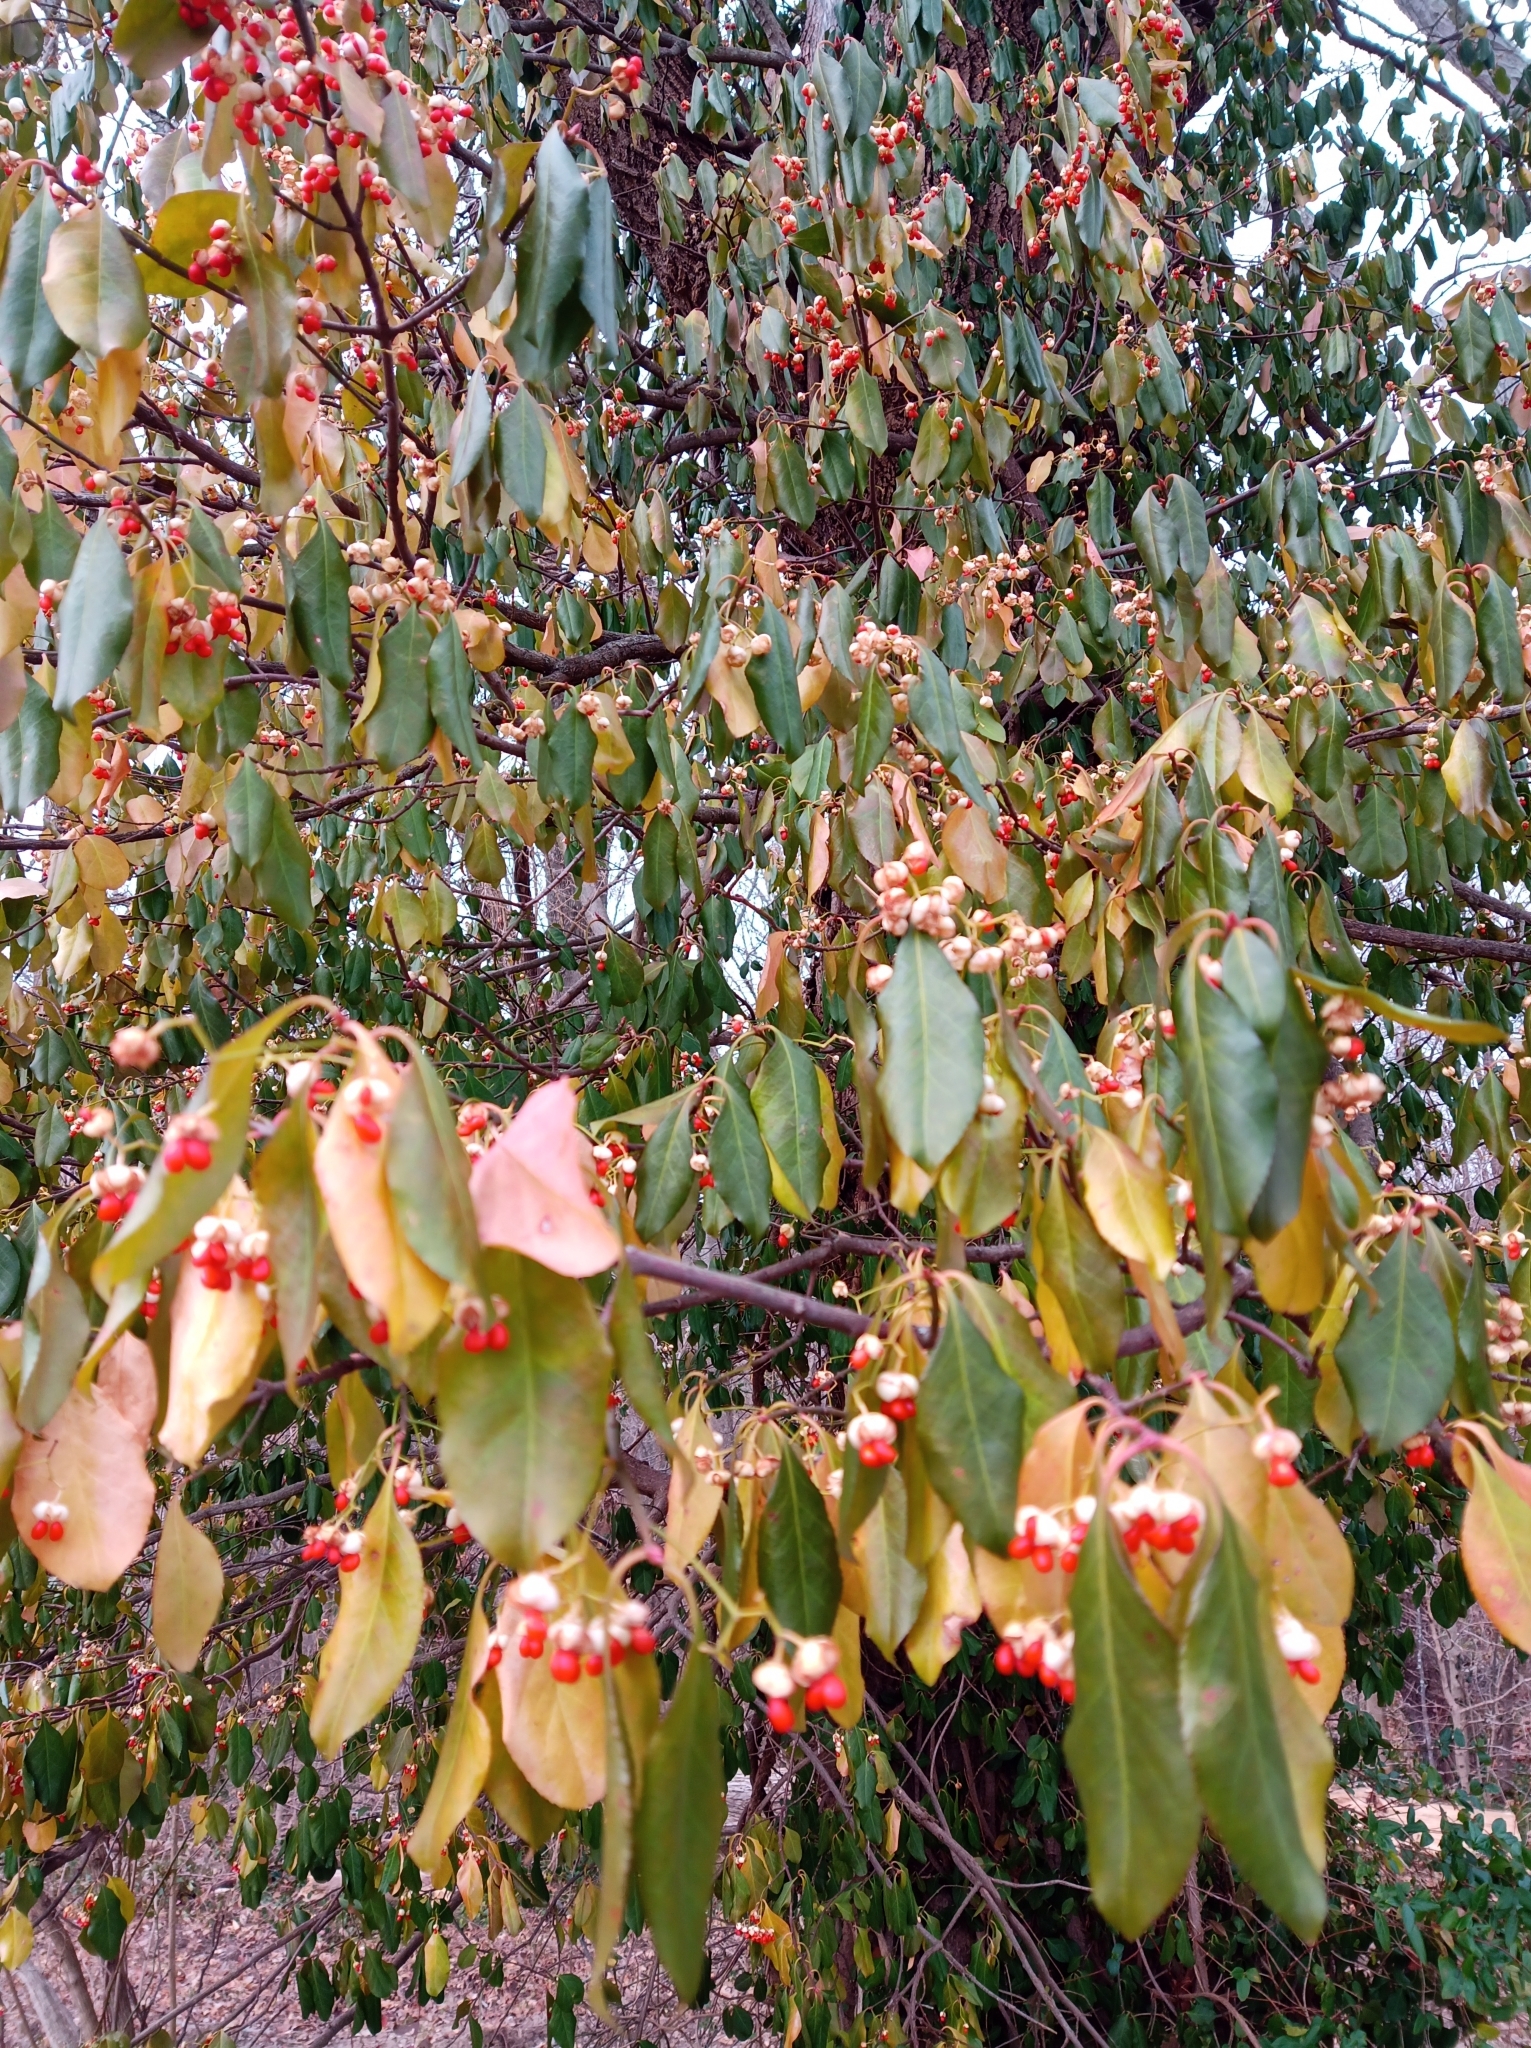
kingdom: Plantae
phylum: Tracheophyta
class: Magnoliopsida
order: Celastrales
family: Celastraceae
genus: Euonymus
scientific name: Euonymus fortunei
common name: Climbing euonymus
